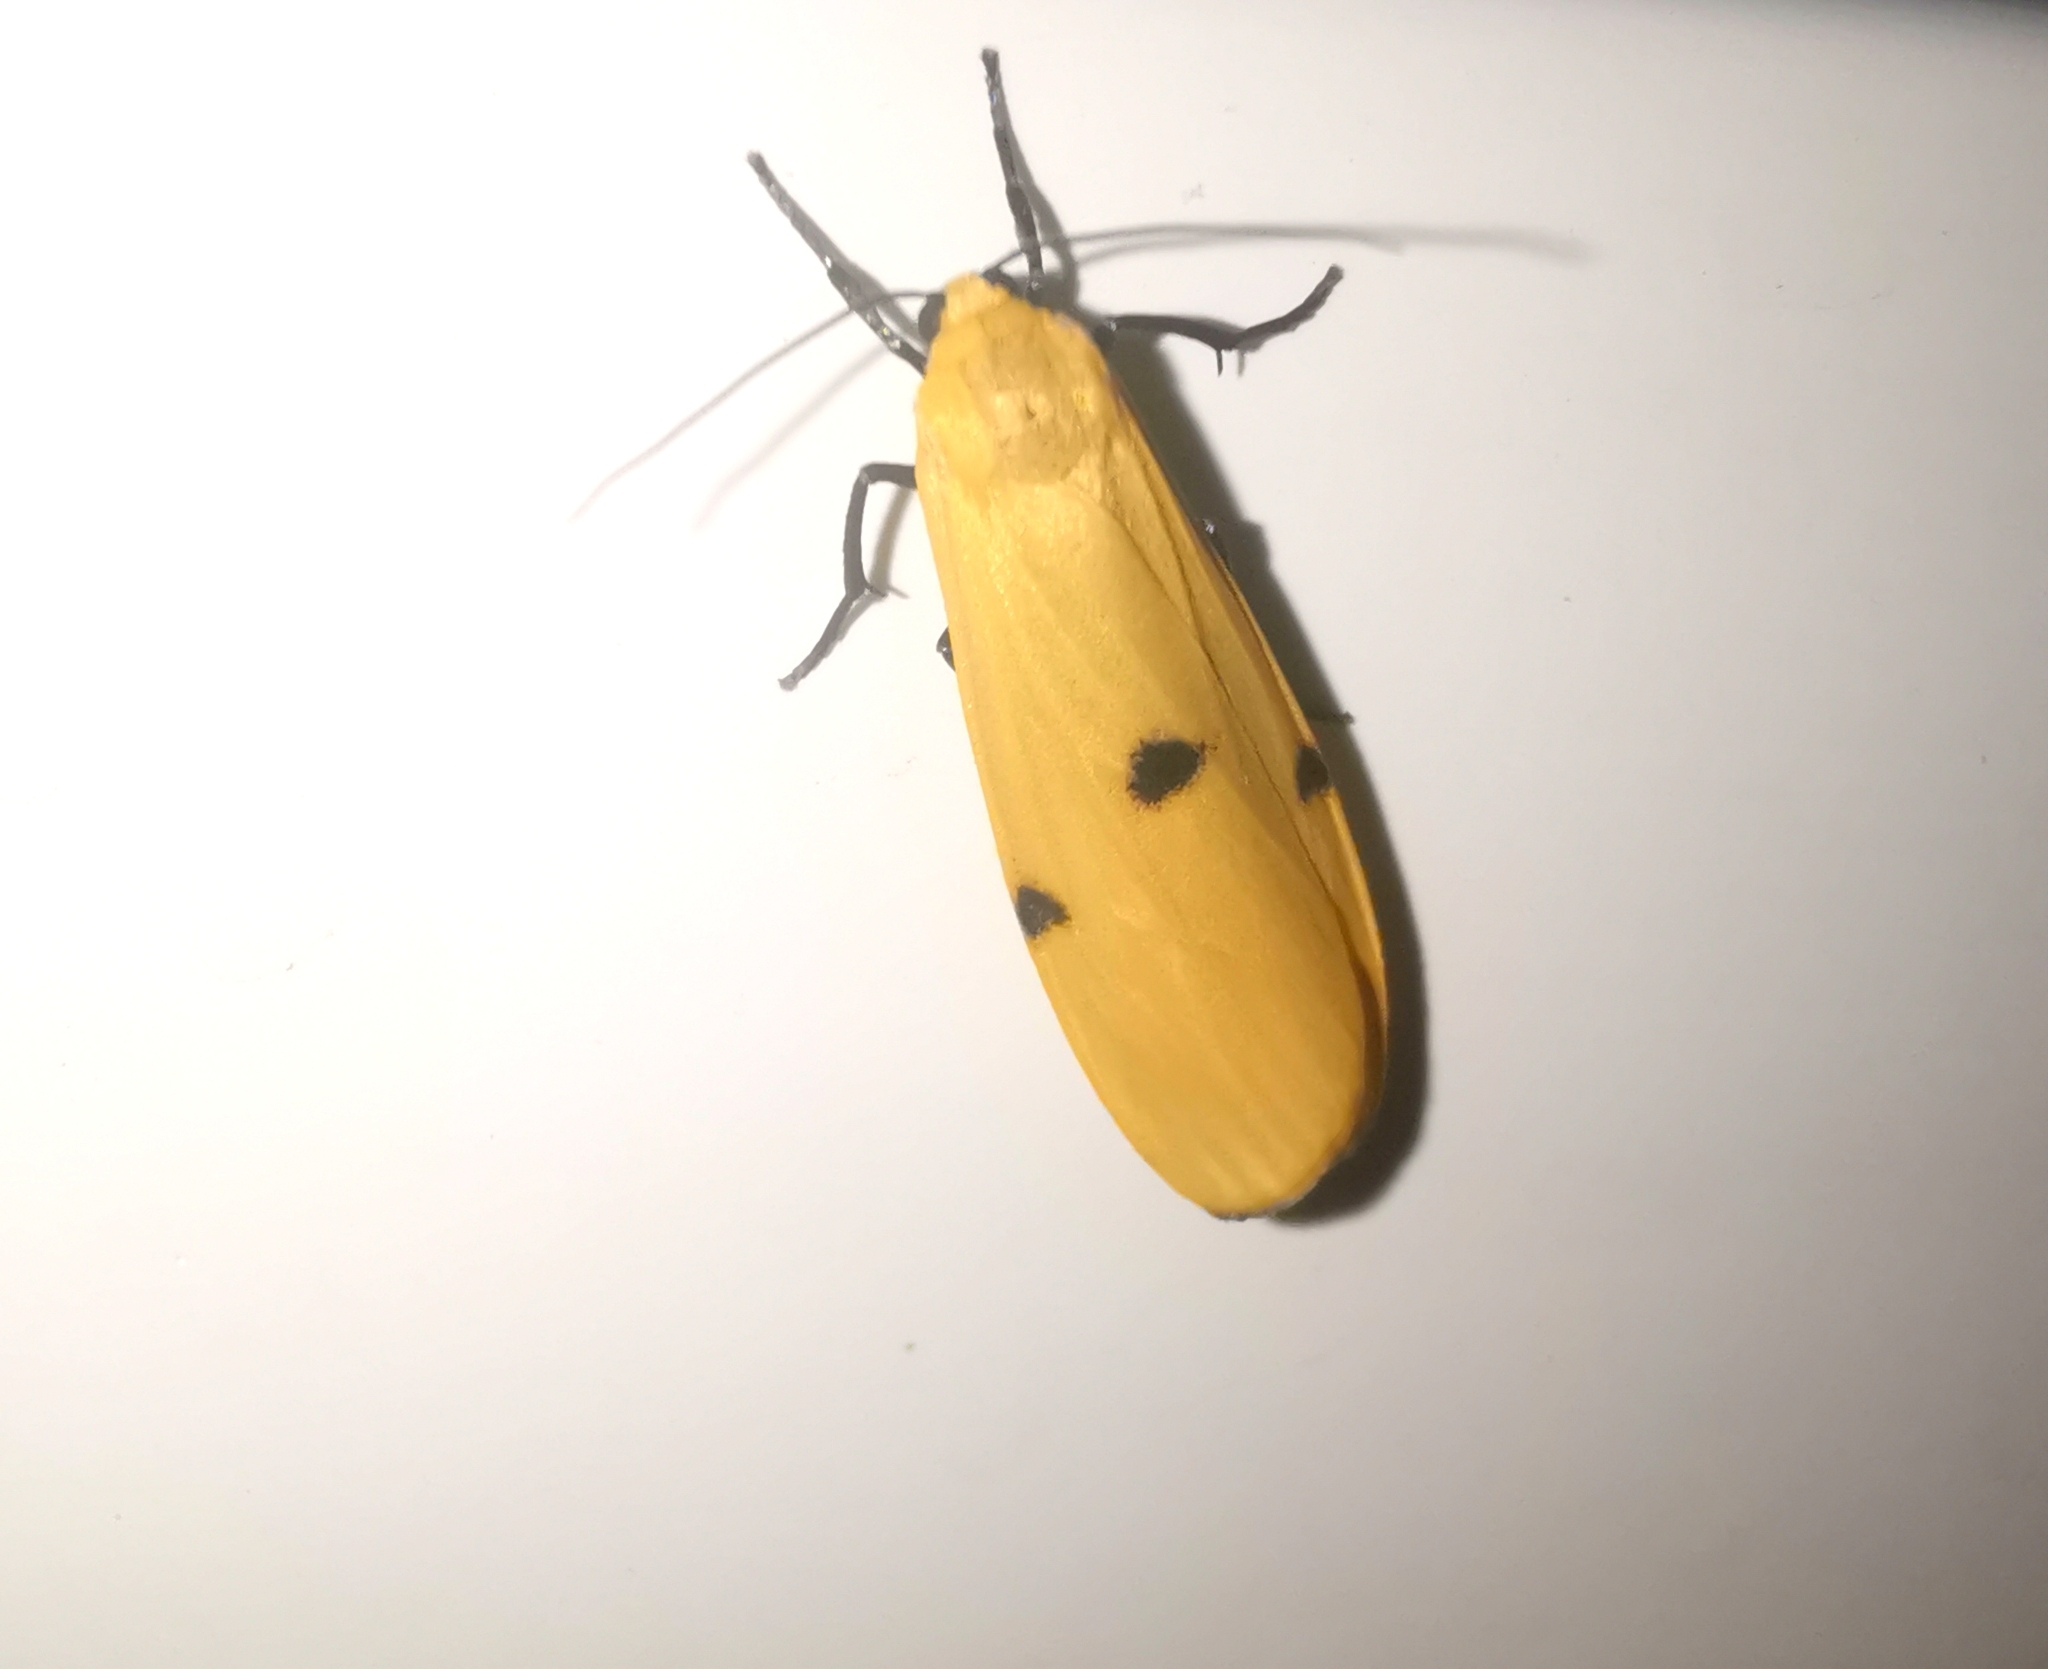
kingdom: Animalia
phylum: Arthropoda
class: Insecta
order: Lepidoptera
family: Erebidae
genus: Lithosia
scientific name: Lithosia quadra
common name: Four-spotted footman
